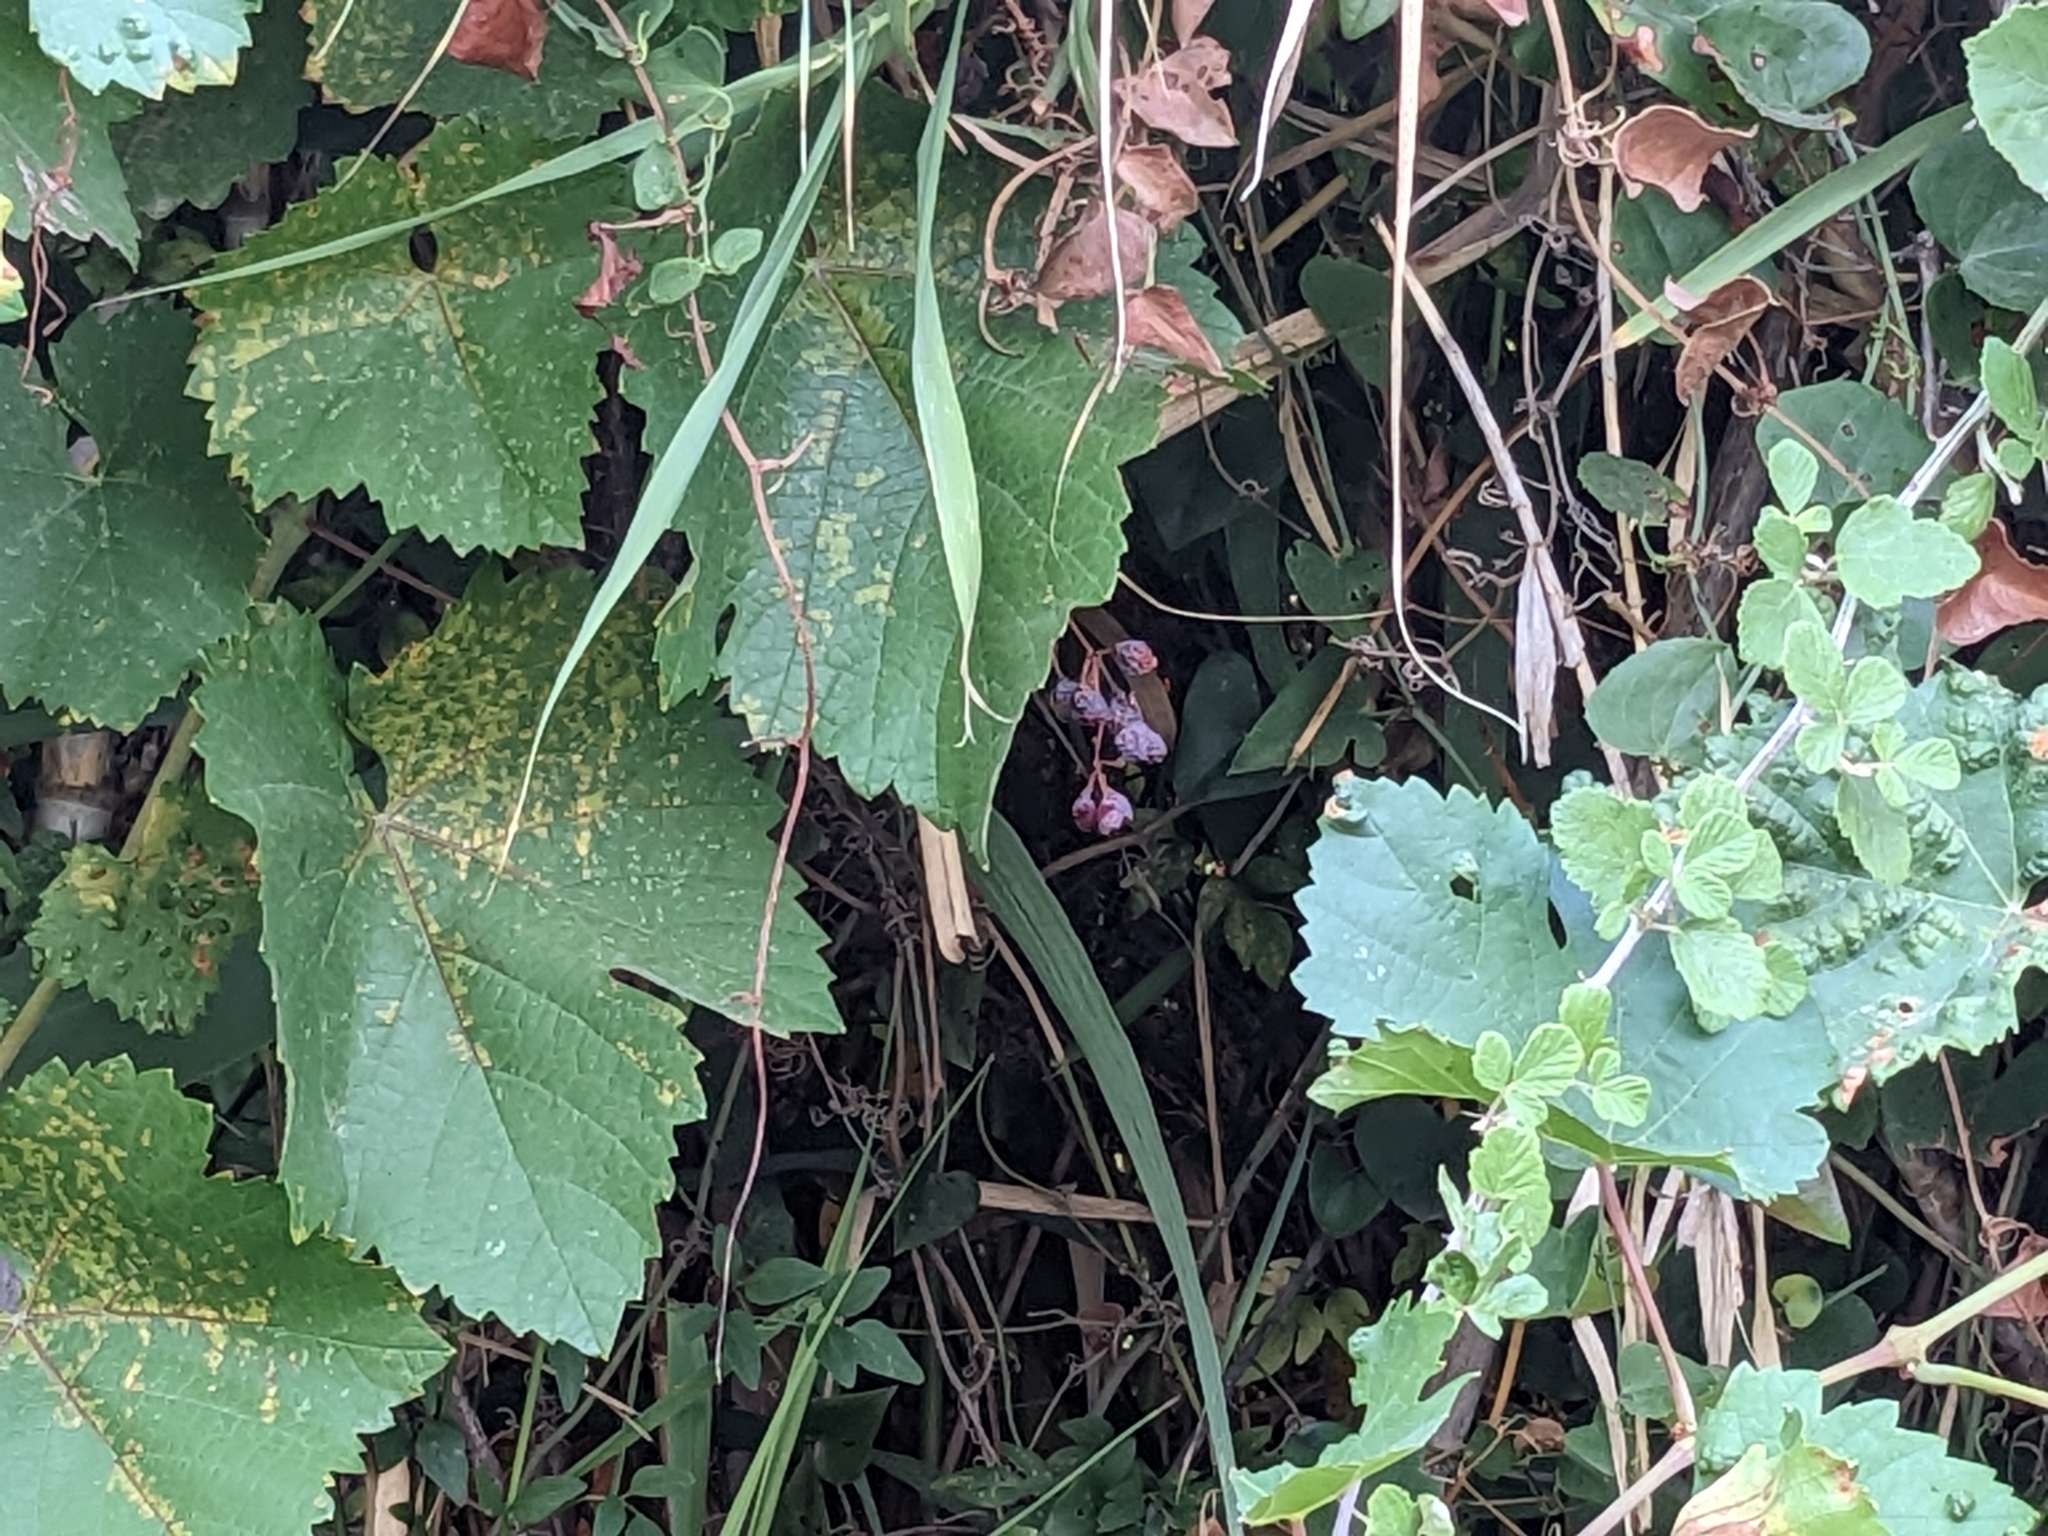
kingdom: Plantae
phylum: Tracheophyta
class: Magnoliopsida
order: Vitales
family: Vitaceae
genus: Vitis
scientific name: Vitis vinifera
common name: Grape-vine
